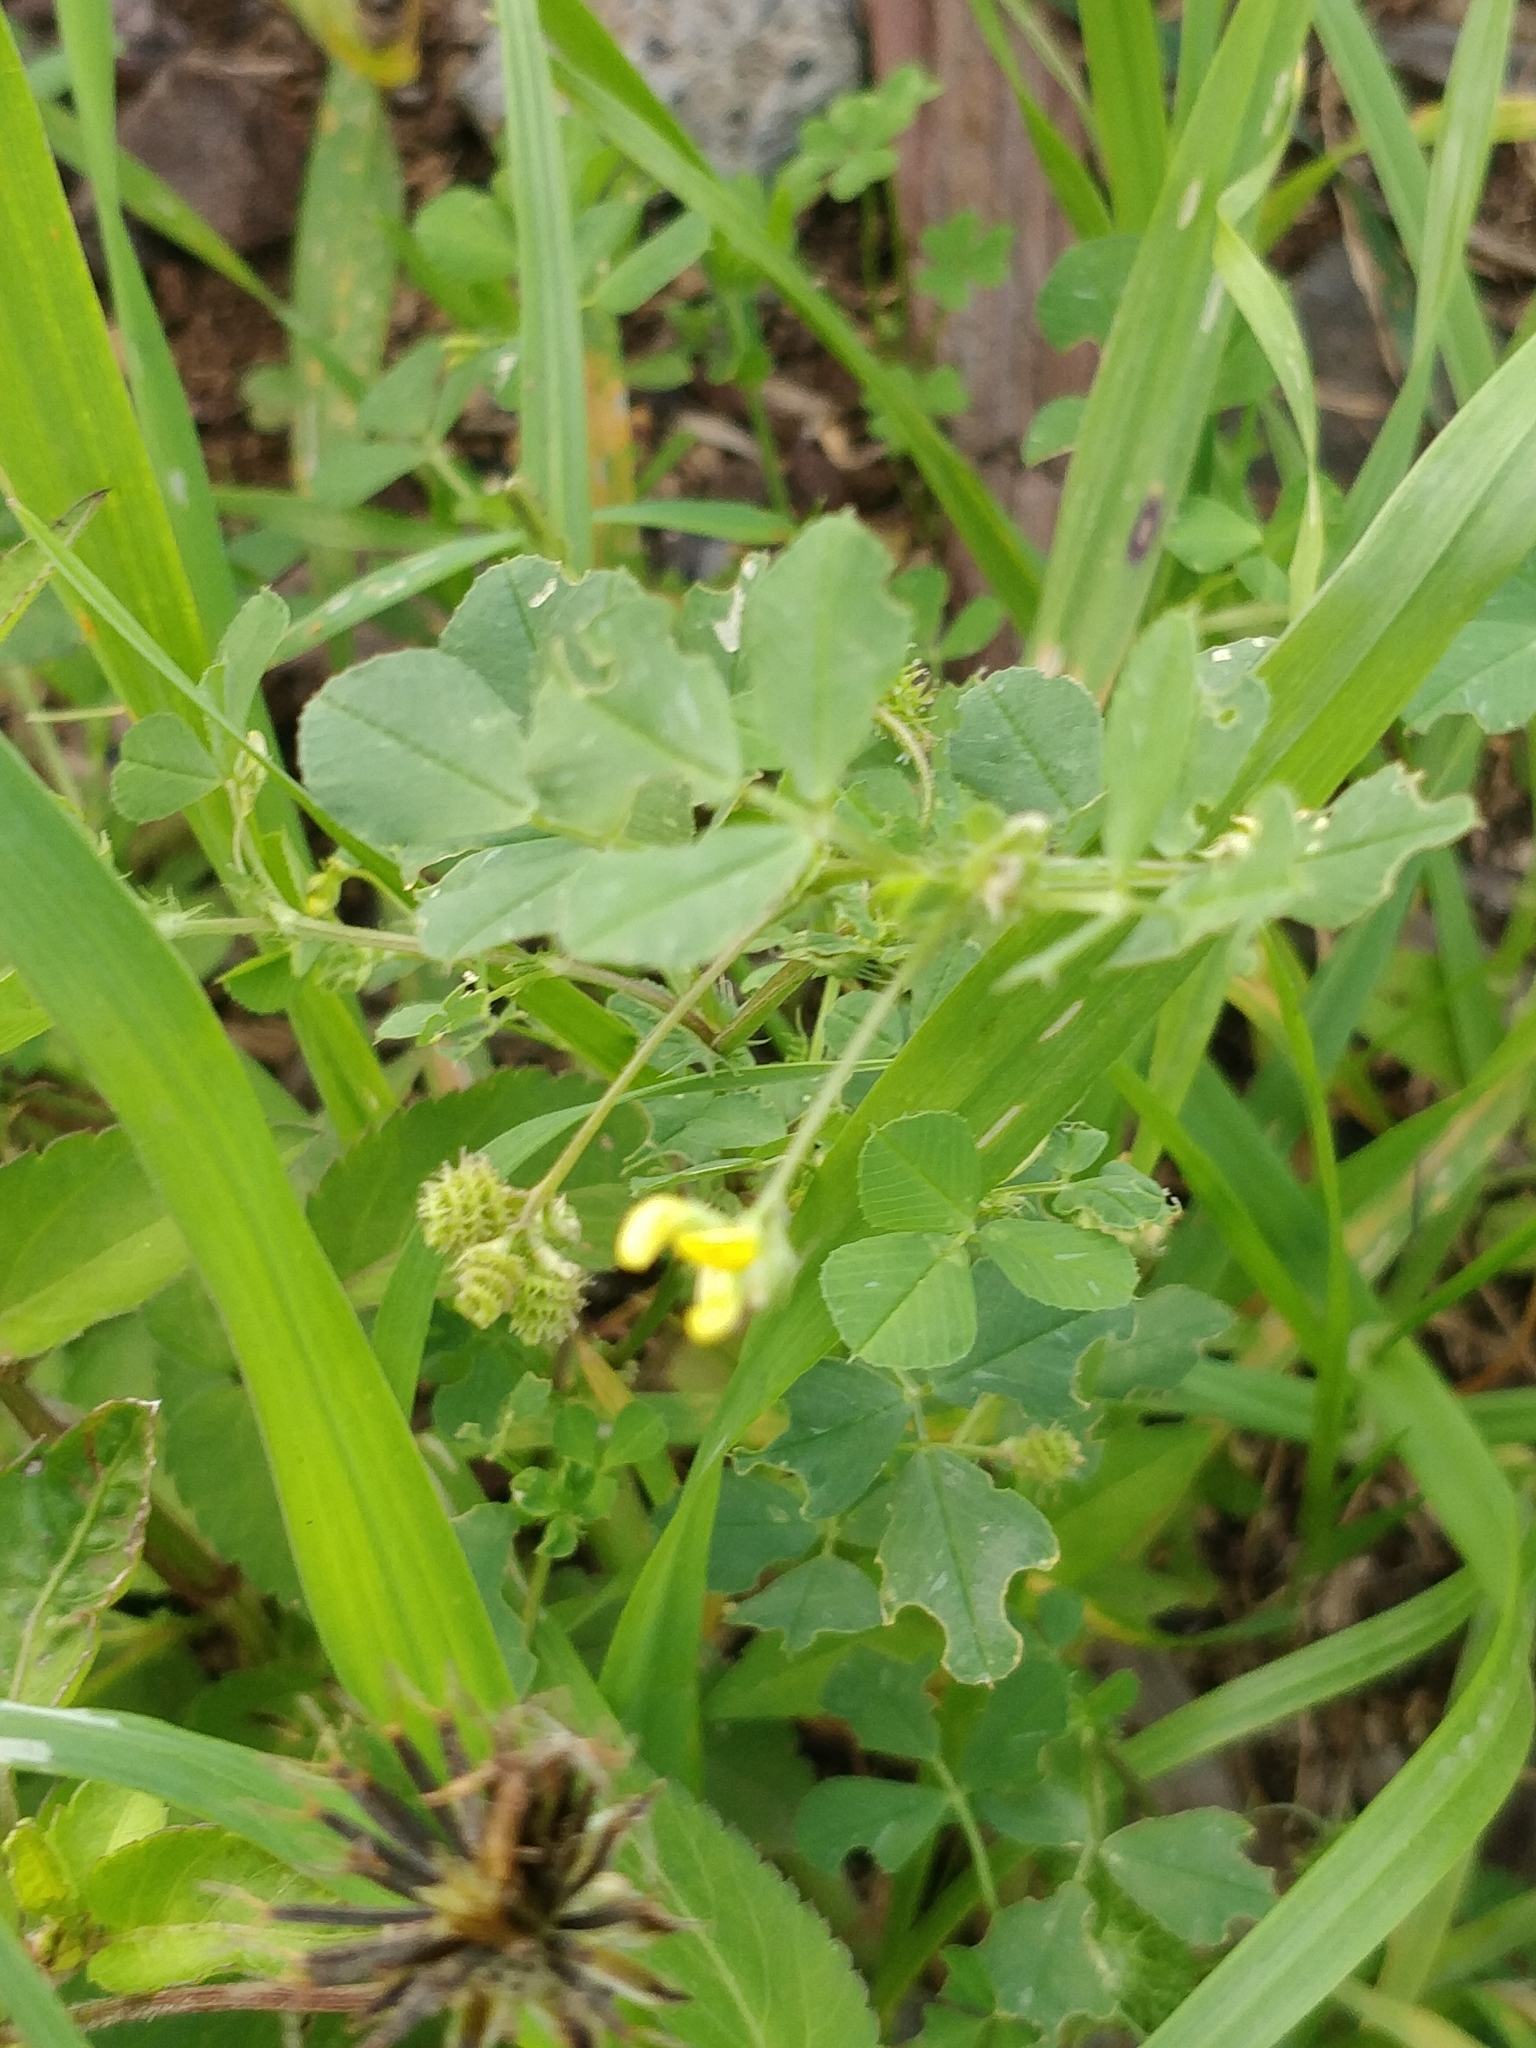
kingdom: Plantae
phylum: Tracheophyta
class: Magnoliopsida
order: Fabales
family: Fabaceae
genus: Medicago
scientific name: Medicago polymorpha
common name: Burclover
